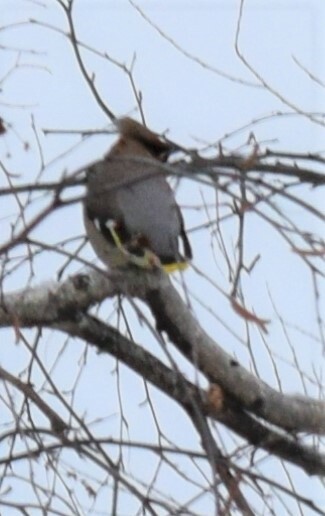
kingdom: Animalia
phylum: Chordata
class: Aves
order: Passeriformes
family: Bombycillidae
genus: Bombycilla
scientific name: Bombycilla garrulus
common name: Bohemian waxwing
